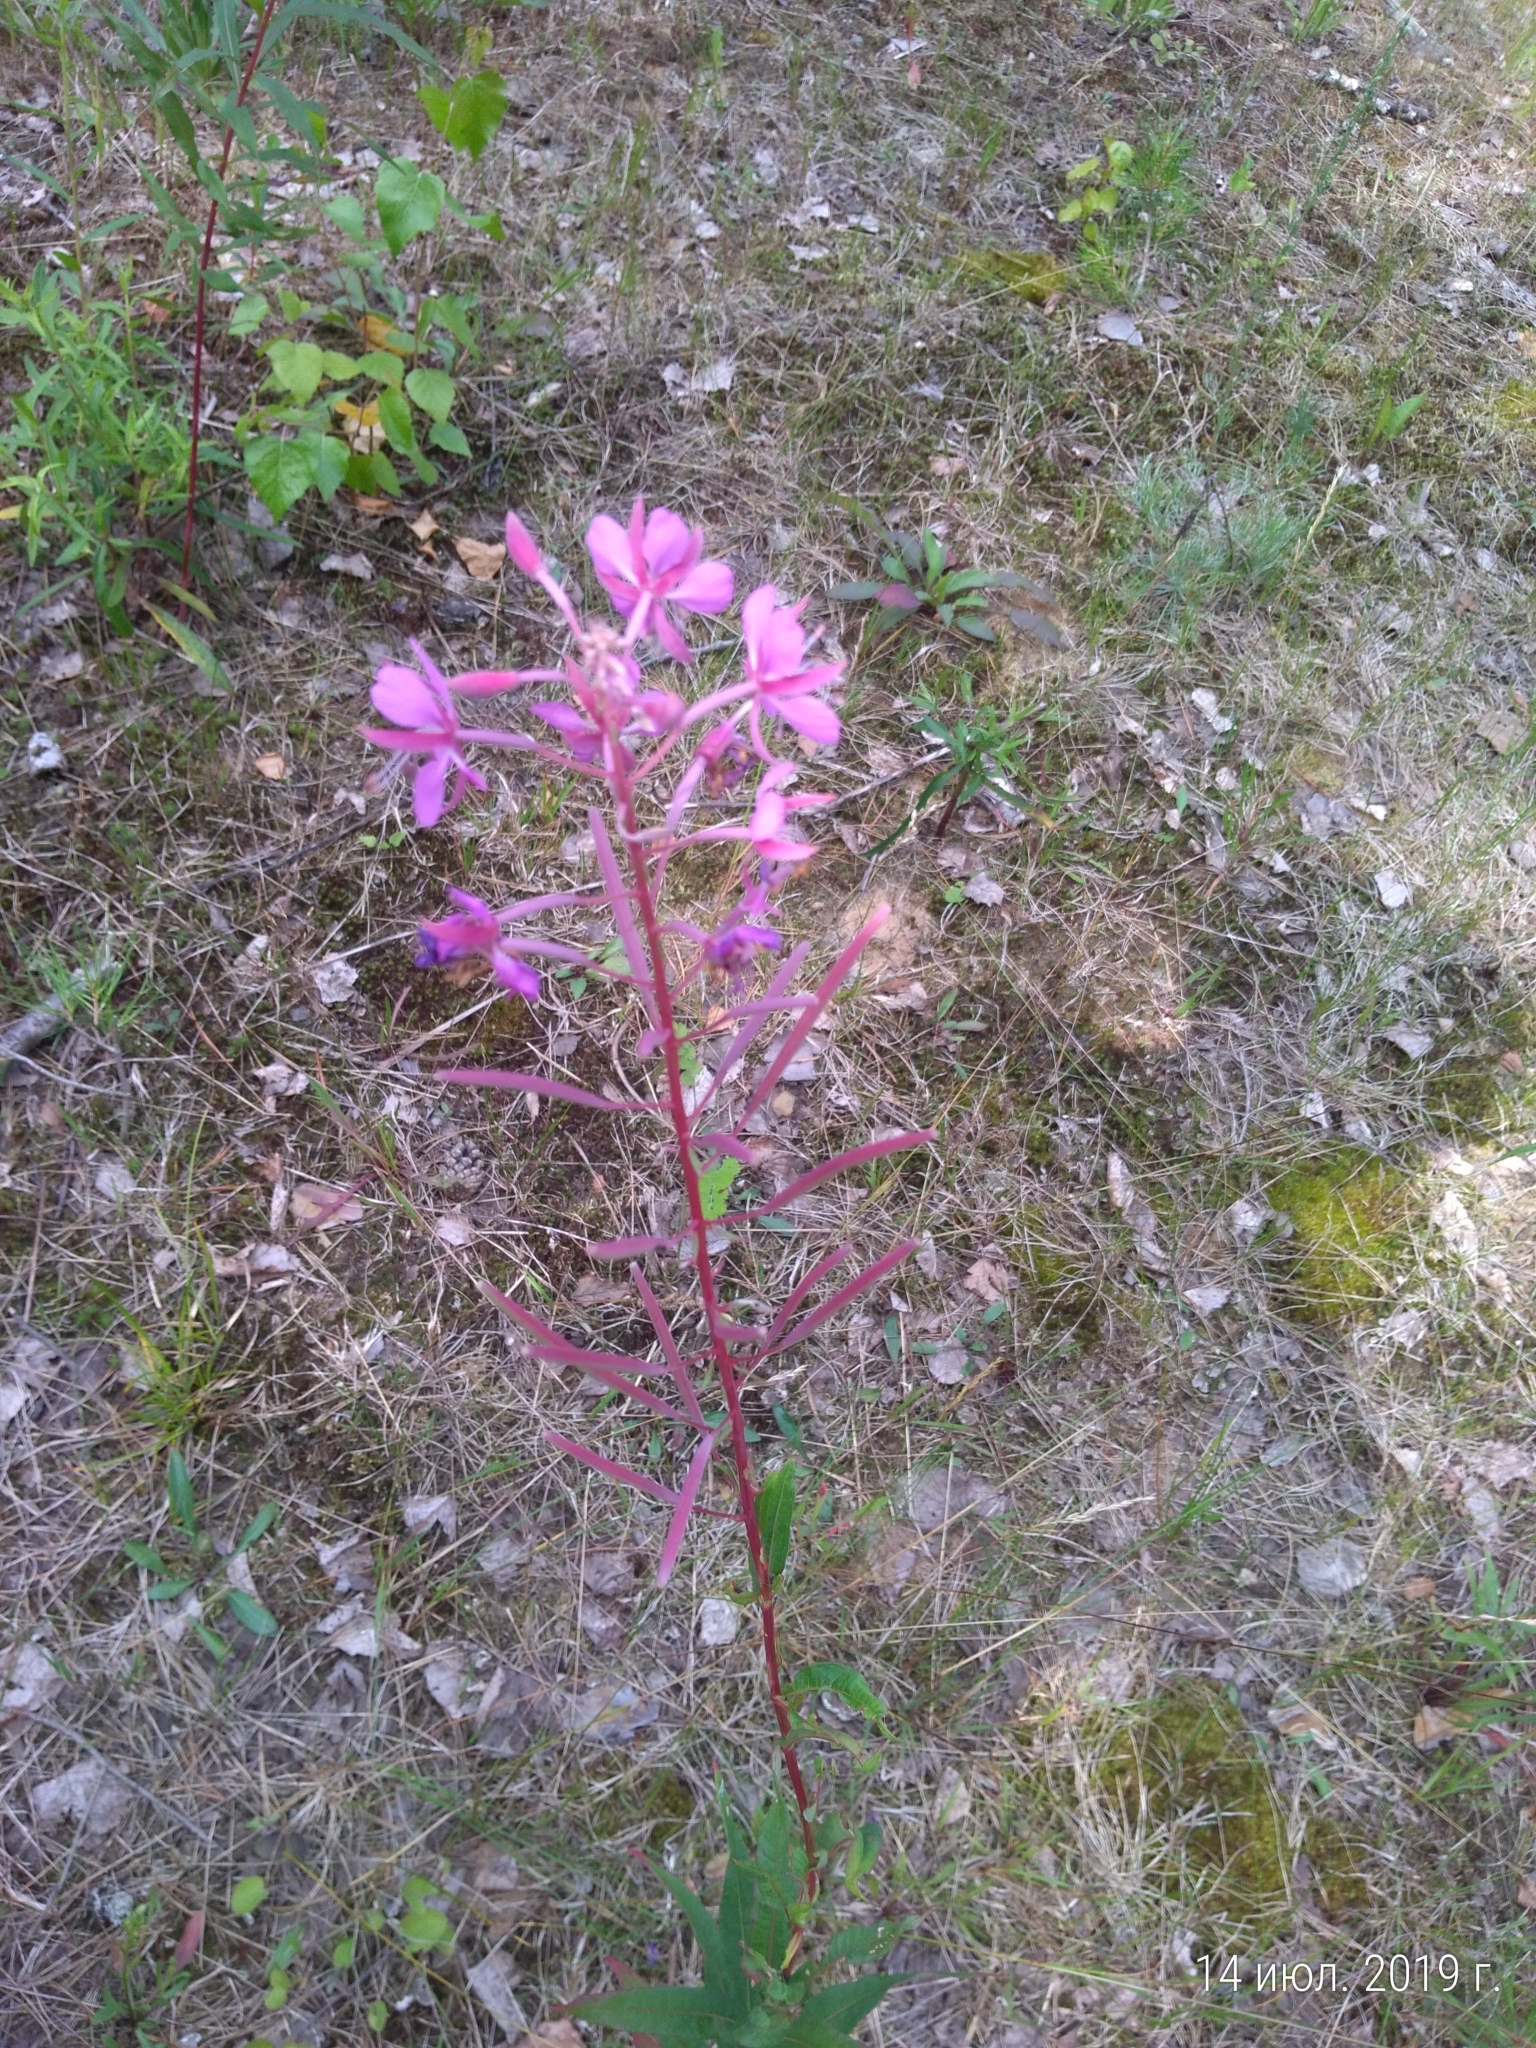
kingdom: Plantae
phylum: Tracheophyta
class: Magnoliopsida
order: Myrtales
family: Onagraceae
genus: Chamaenerion
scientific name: Chamaenerion angustifolium
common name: Fireweed
